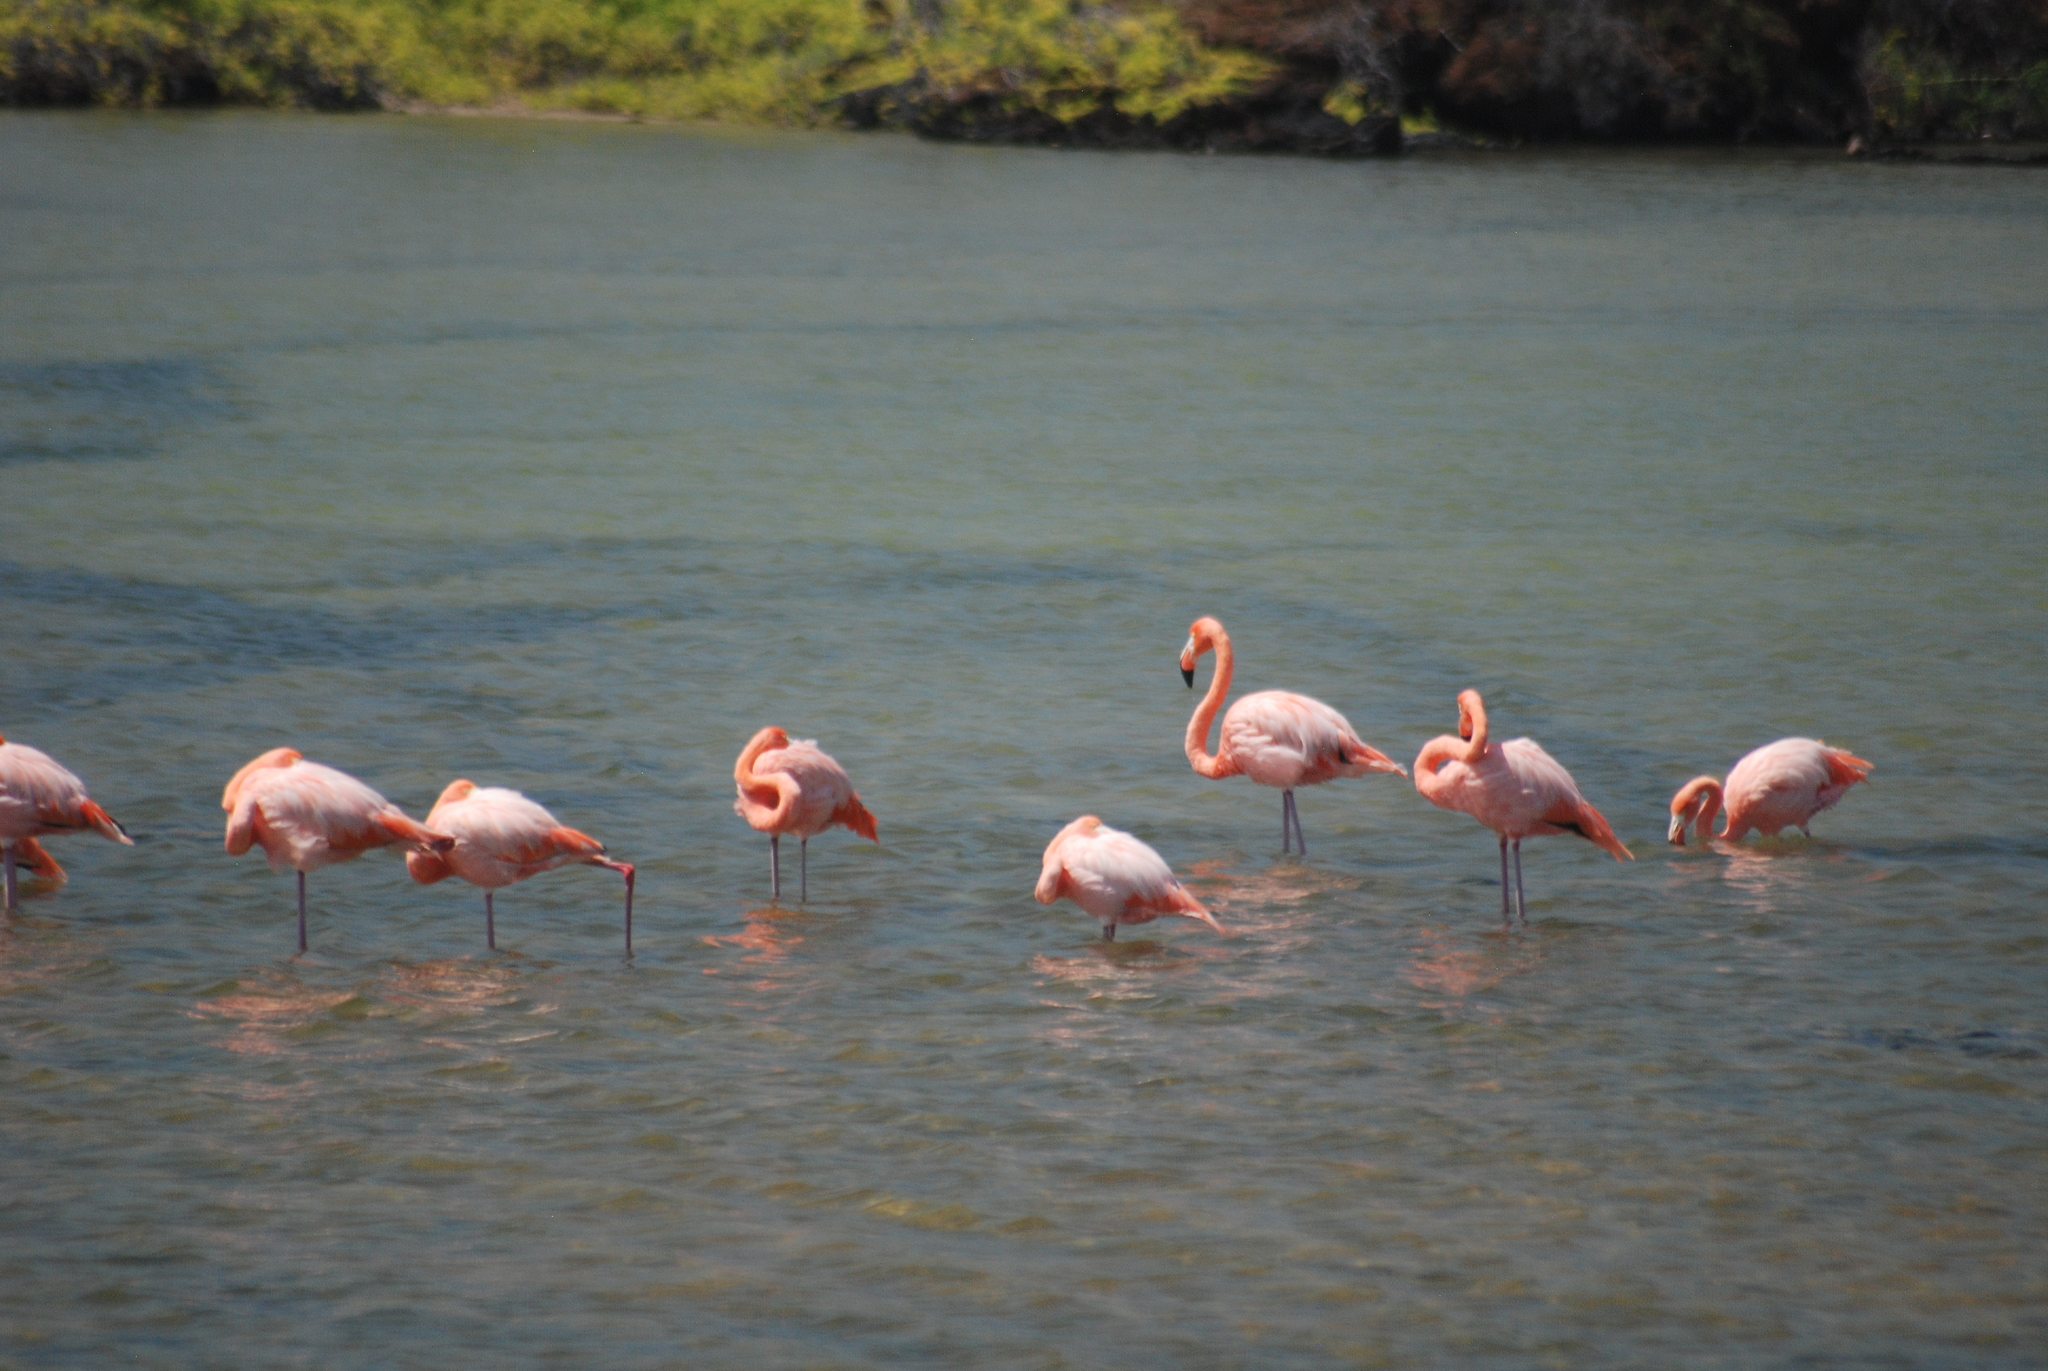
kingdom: Animalia
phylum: Chordata
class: Aves
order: Phoenicopteriformes
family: Phoenicopteridae
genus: Phoenicopterus
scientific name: Phoenicopterus ruber
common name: American flamingo
